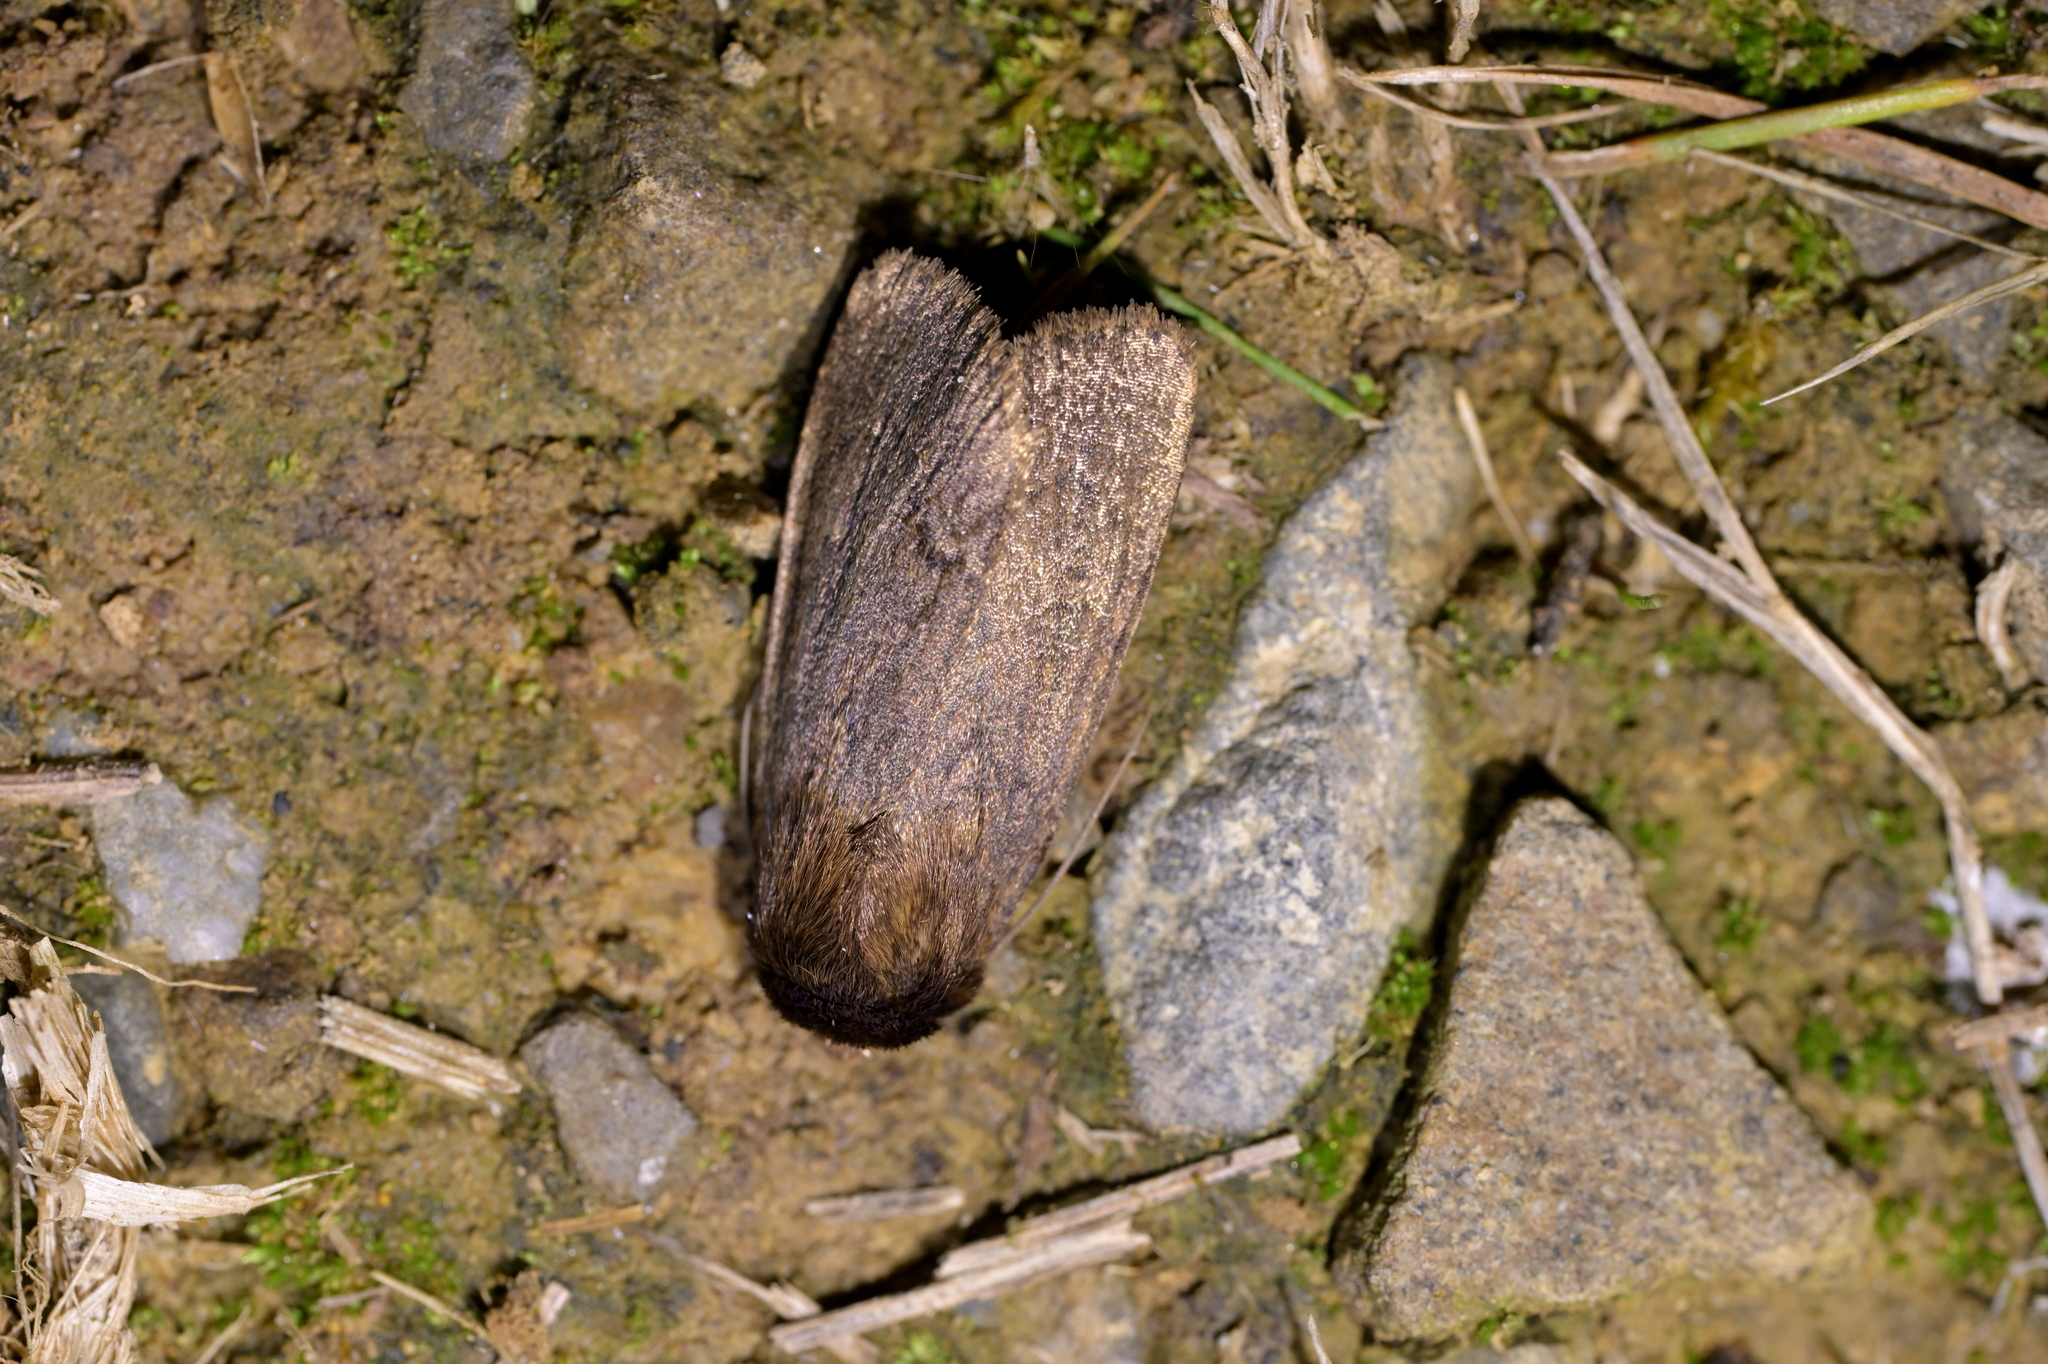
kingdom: Animalia
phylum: Arthropoda
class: Insecta
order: Lepidoptera
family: Noctuidae
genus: Bityla
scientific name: Bityla defigurata
